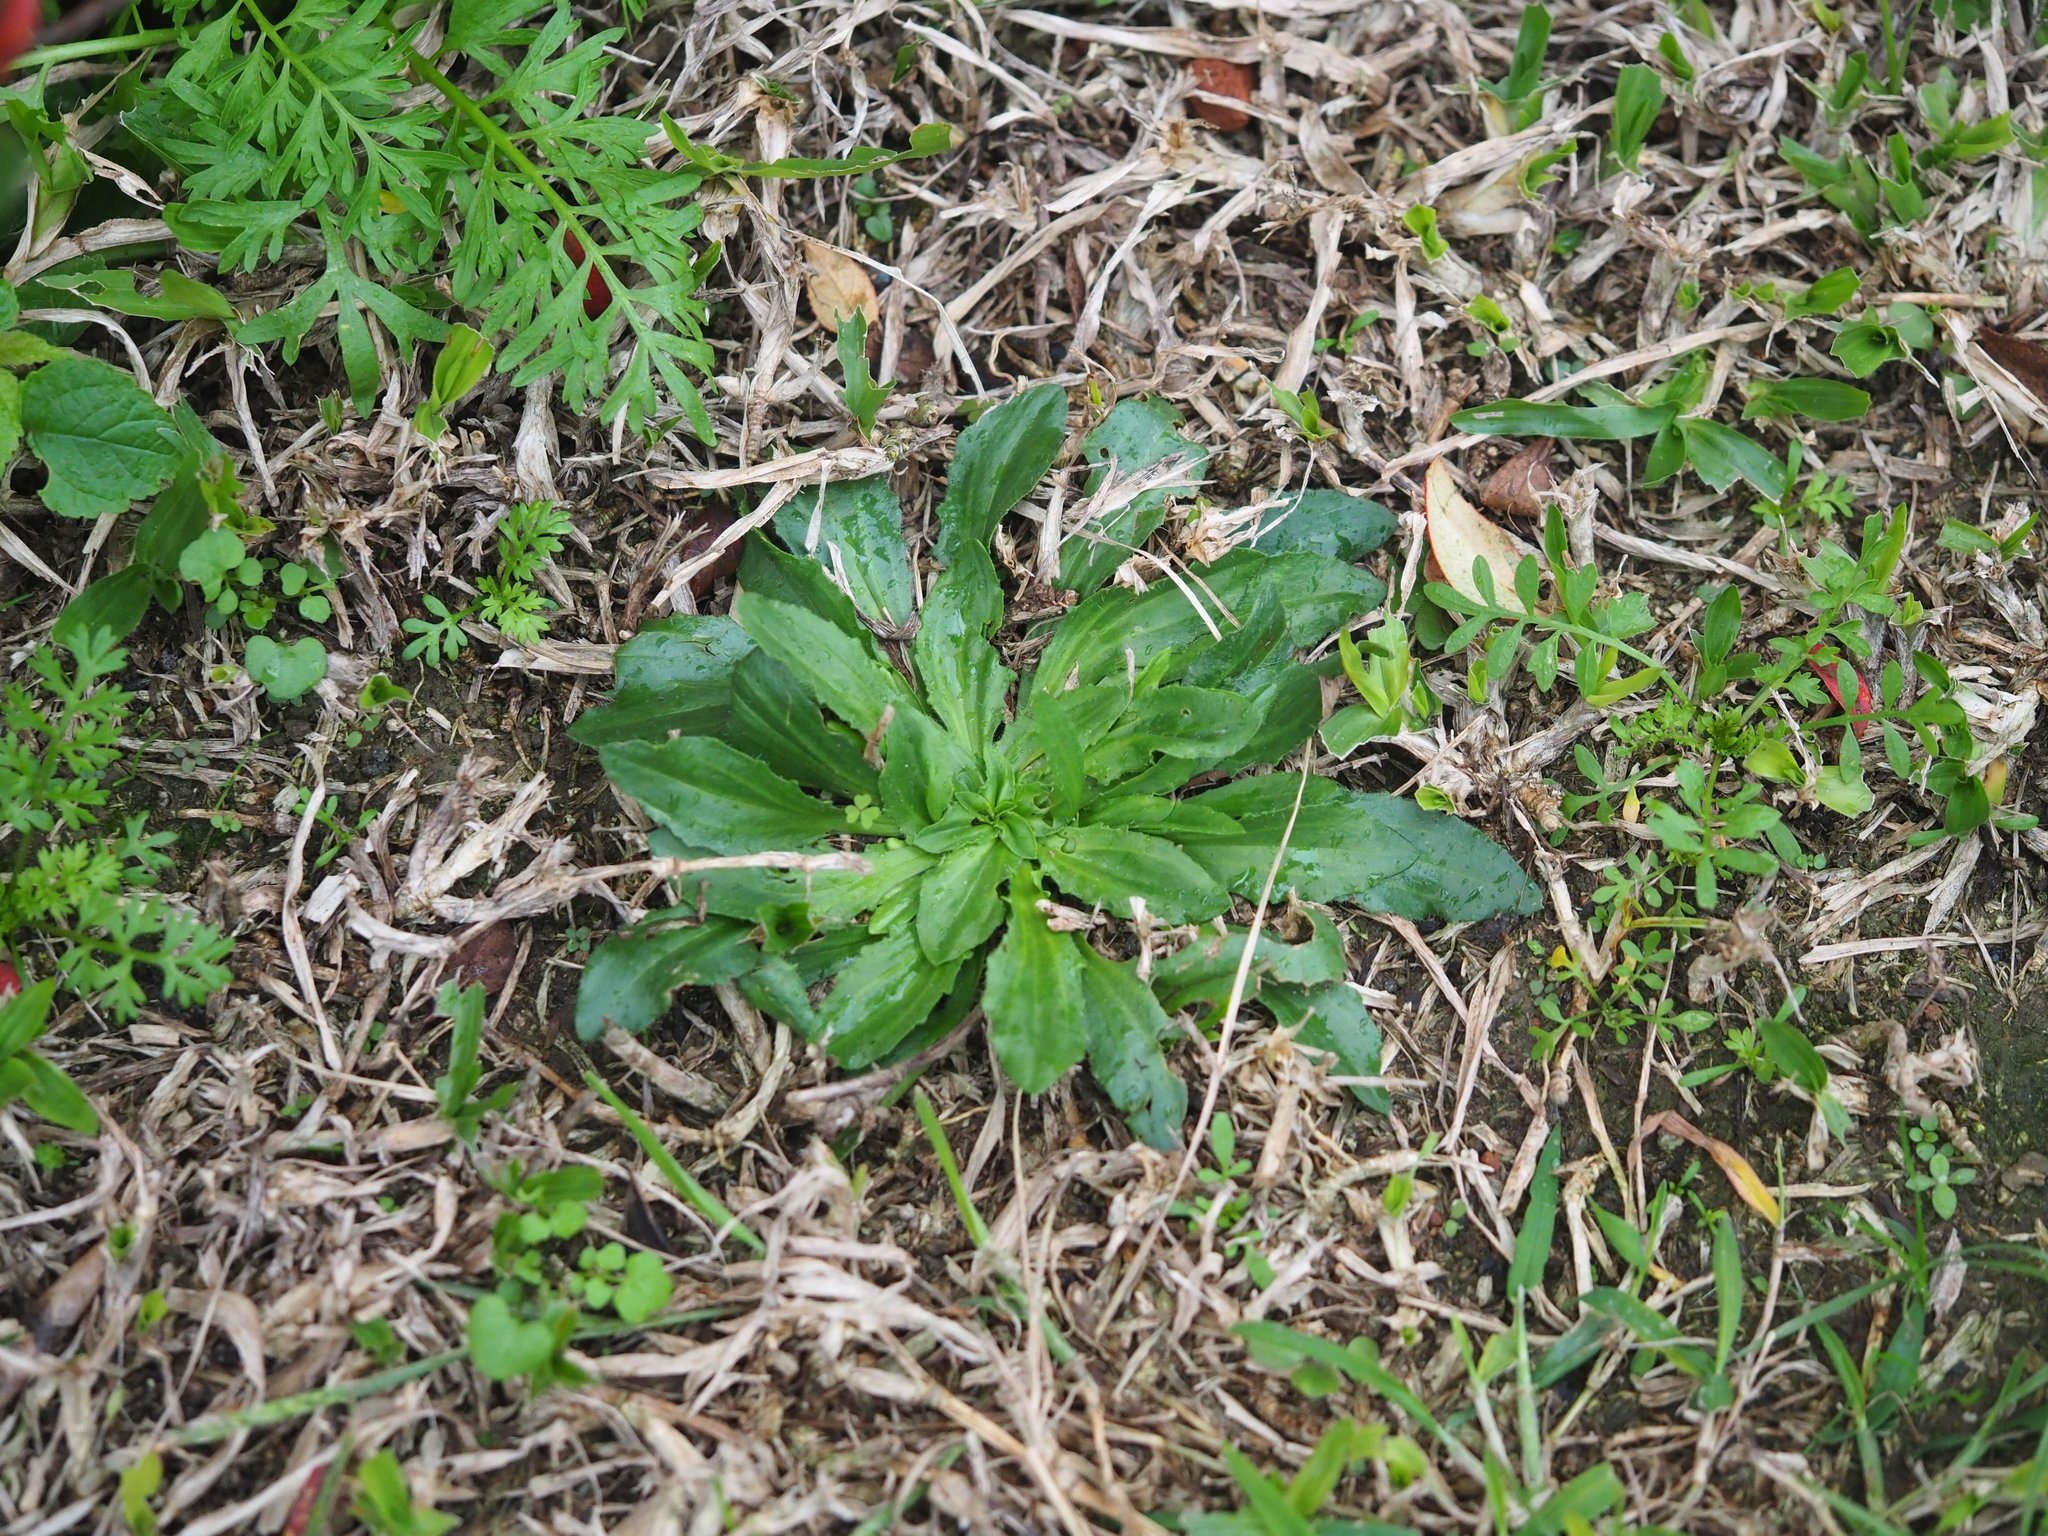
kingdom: Plantae
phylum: Tracheophyta
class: Magnoliopsida
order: Lamiales
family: Plantaginaceae
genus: Plantago
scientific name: Plantago virginica
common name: Hoary plantain
